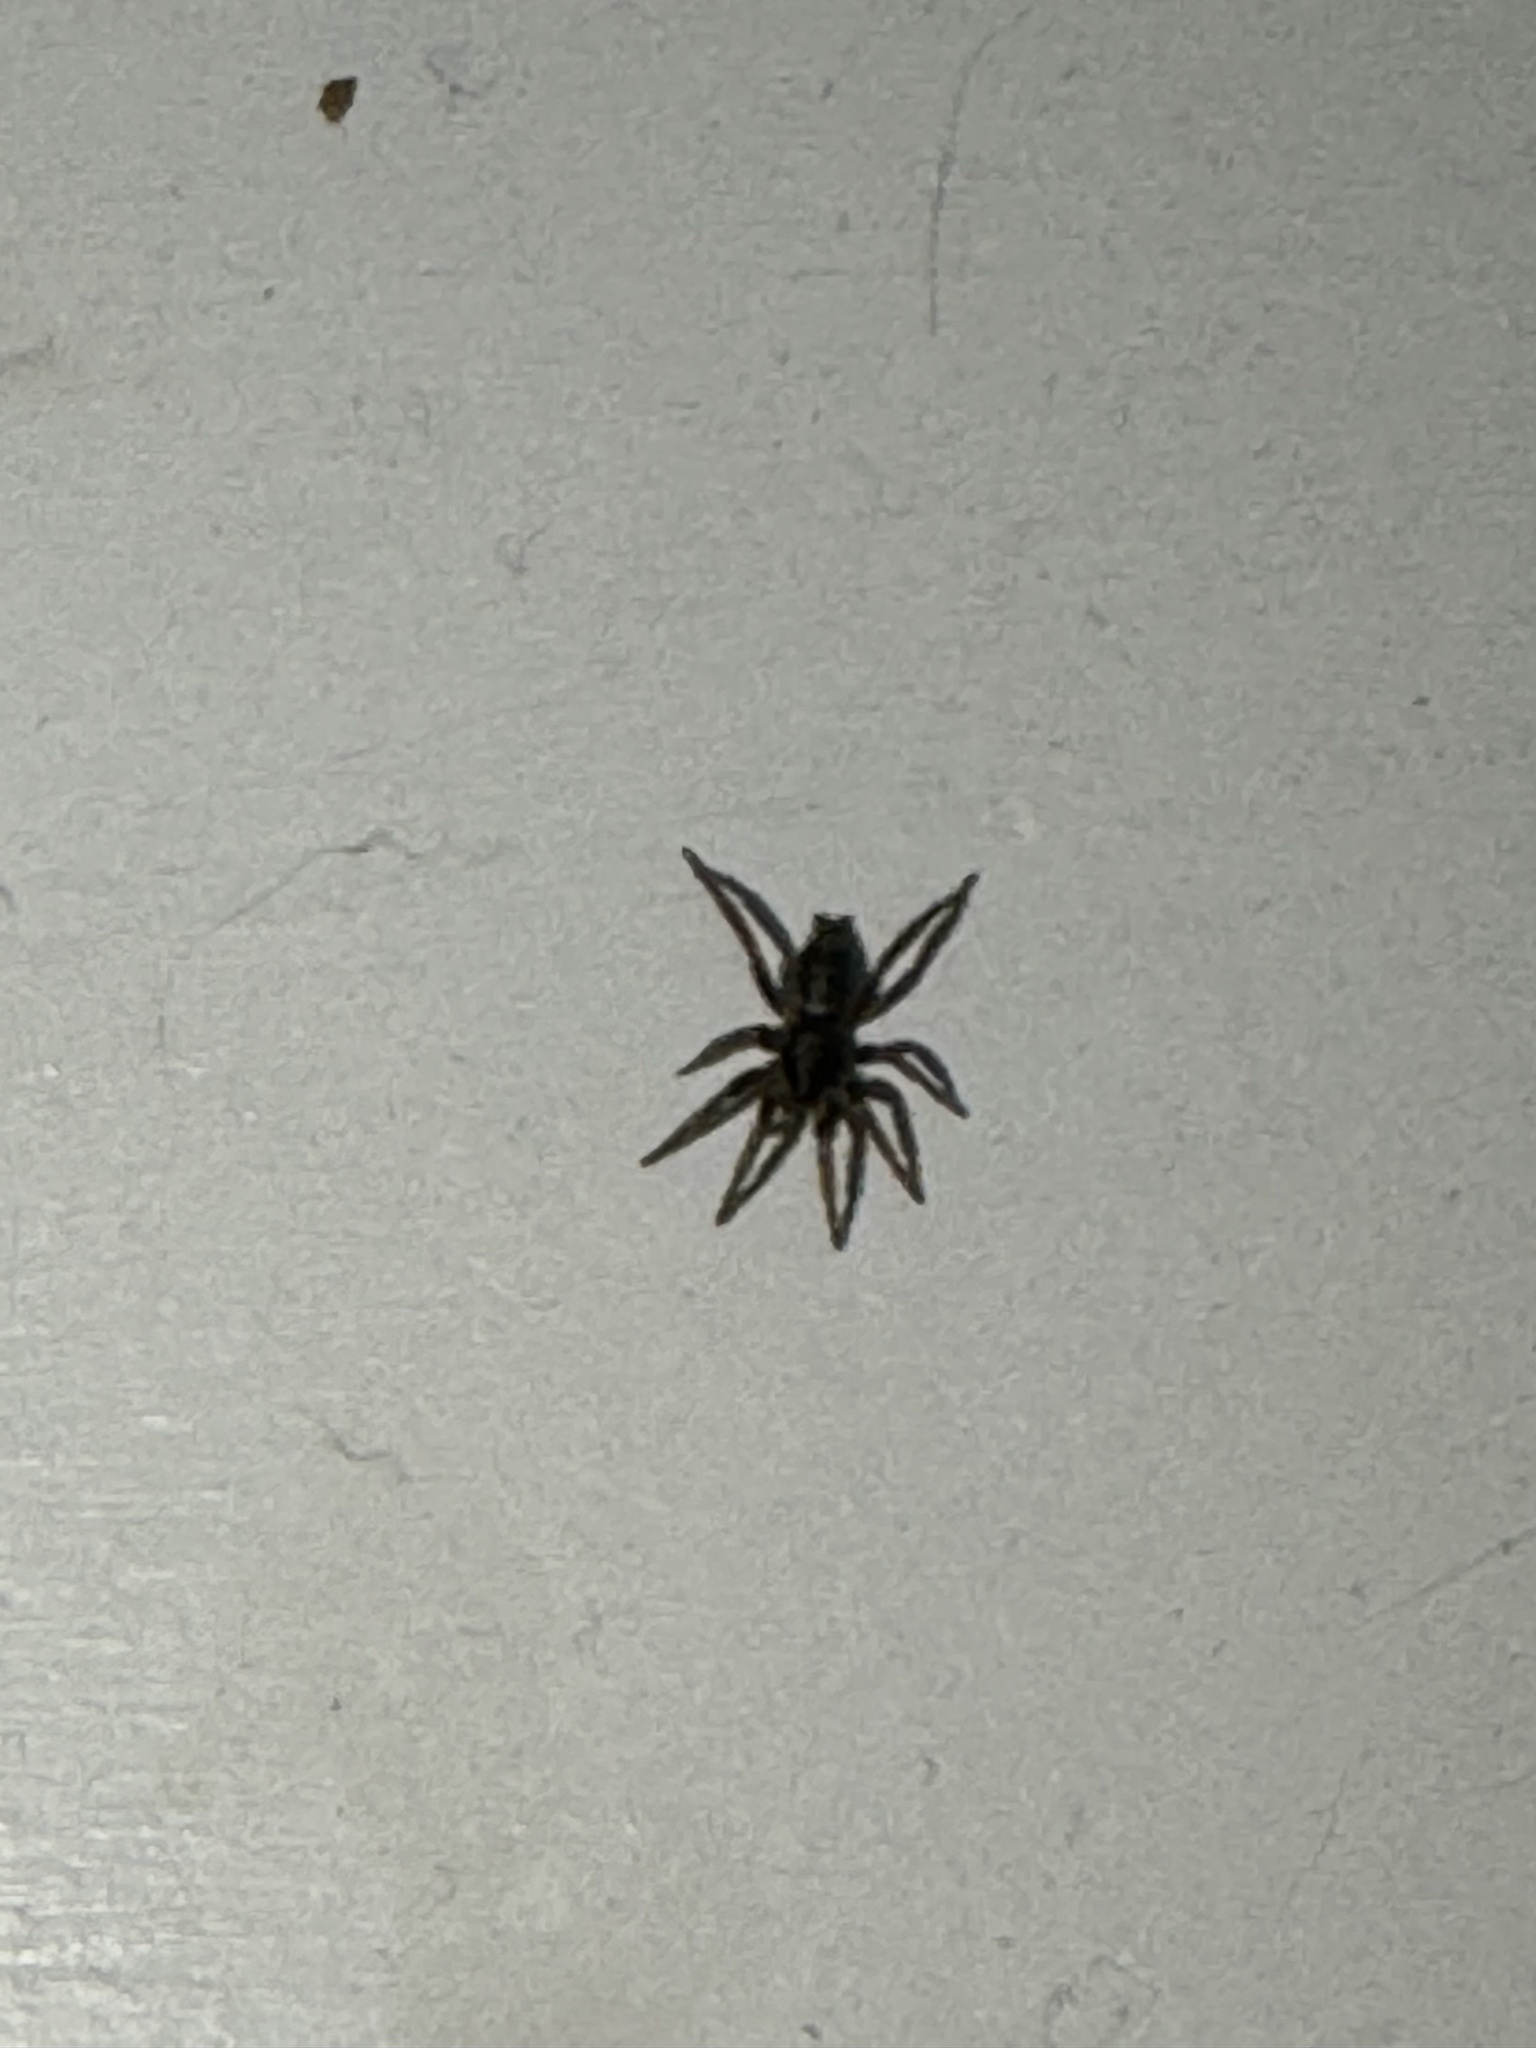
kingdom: Animalia
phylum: Arthropoda
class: Arachnida
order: Araneae
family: Gnaphosidae
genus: Herpyllus
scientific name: Herpyllus ecclesiasticus
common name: Eastern parson spider
